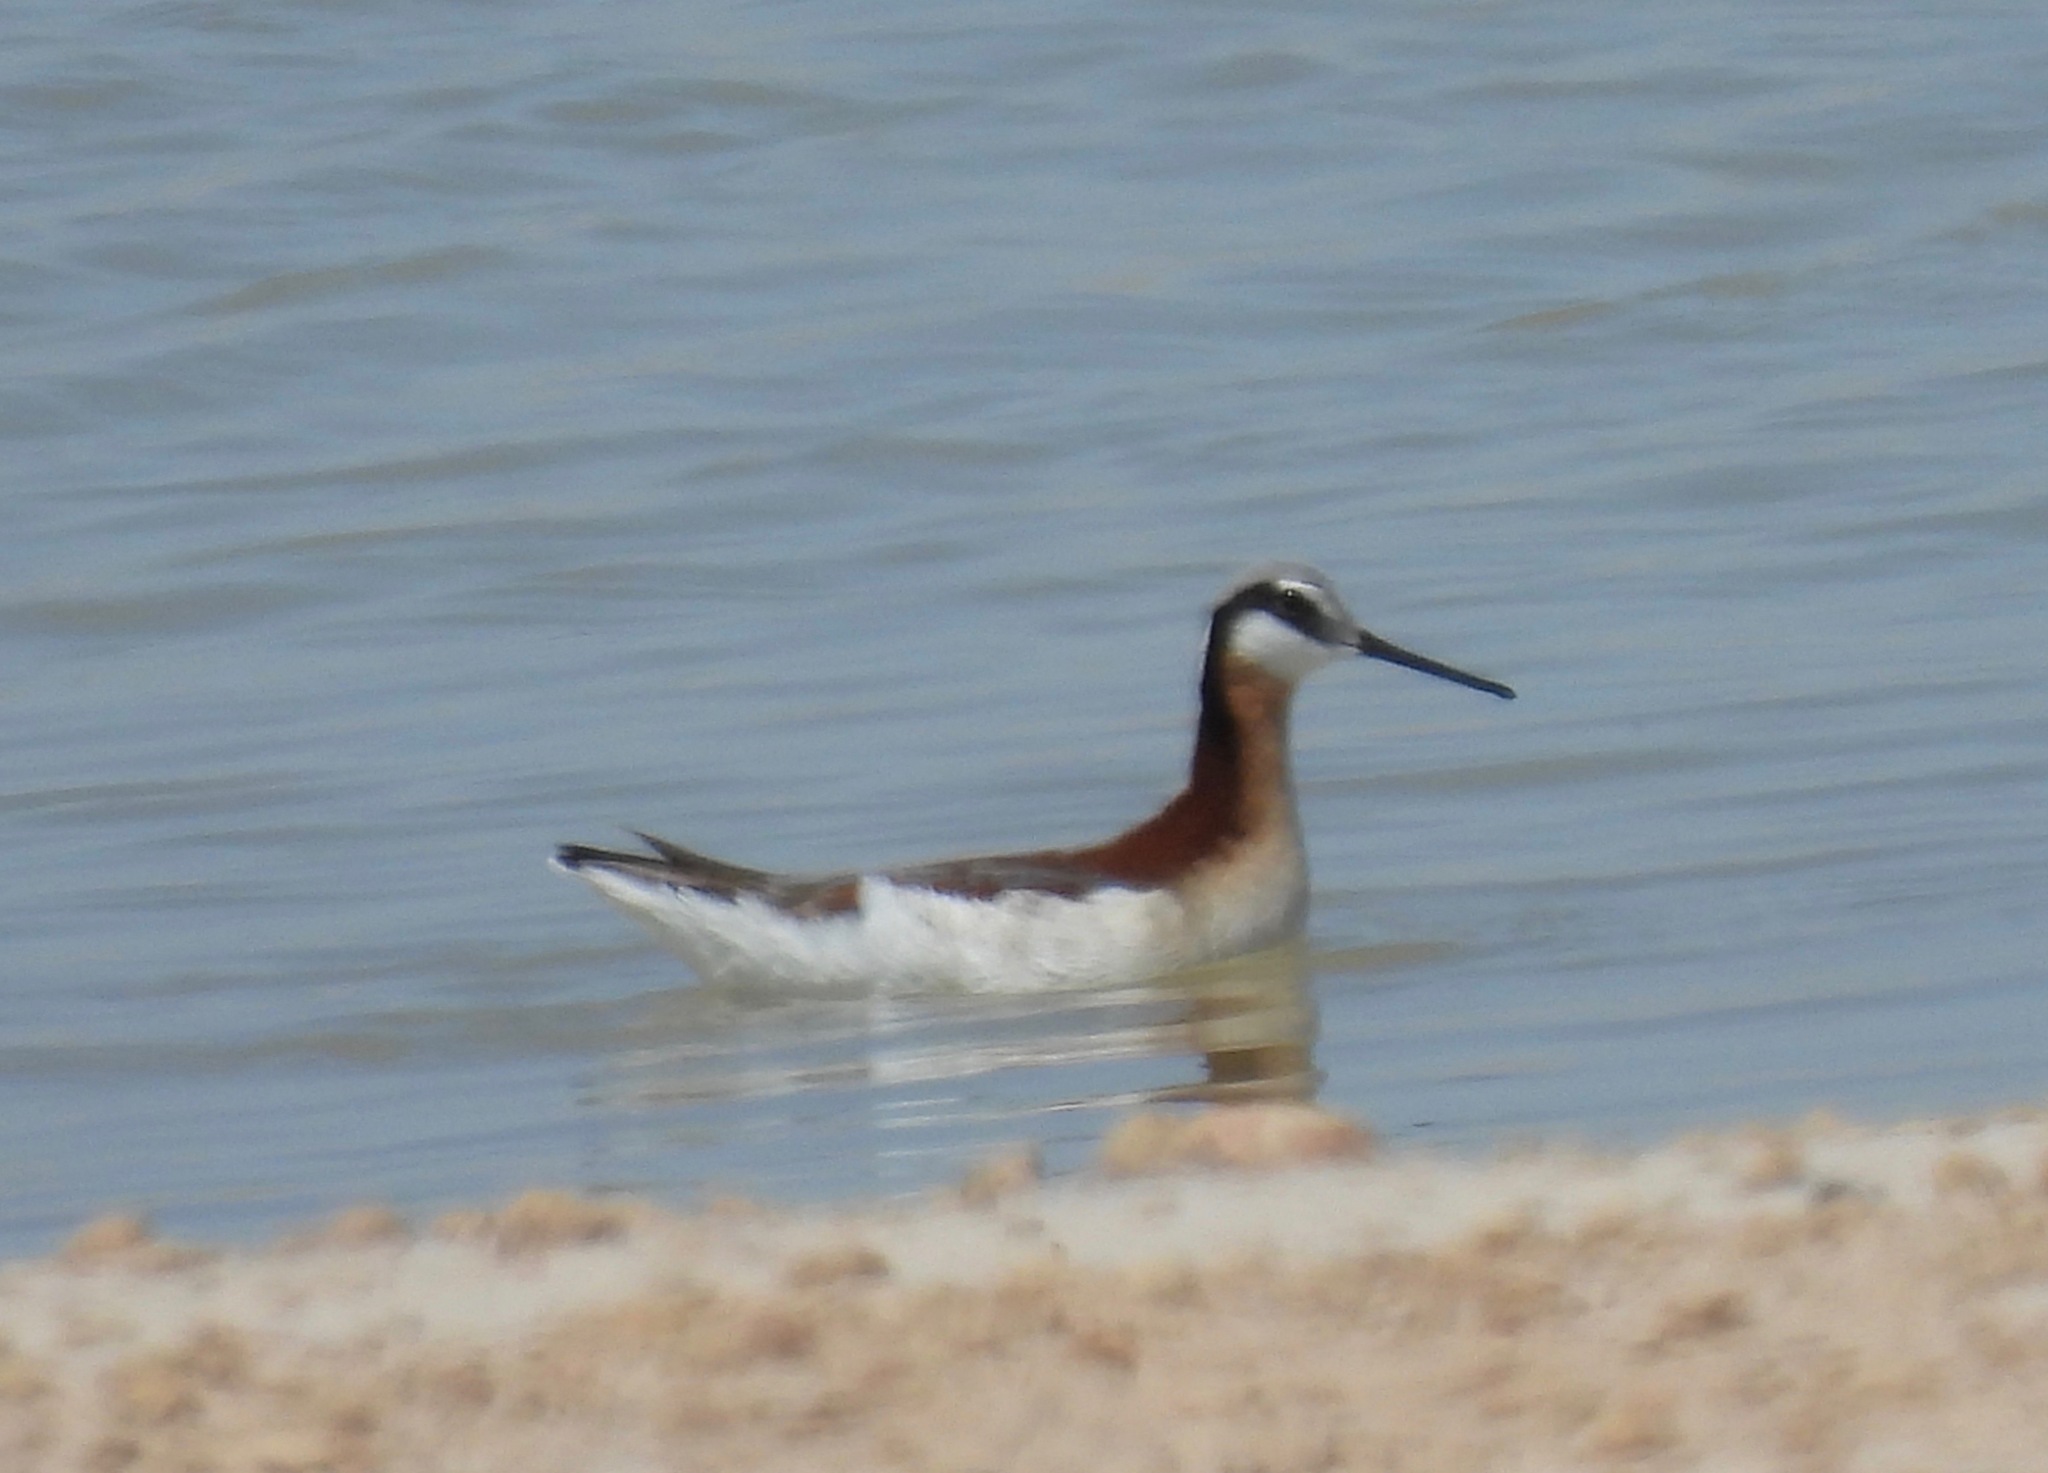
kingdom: Animalia
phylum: Chordata
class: Aves
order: Charadriiformes
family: Scolopacidae
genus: Phalaropus
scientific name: Phalaropus tricolor
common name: Wilson's phalarope
